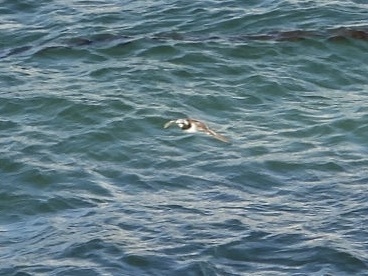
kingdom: Animalia
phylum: Chordata
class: Aves
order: Charadriiformes
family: Scolopacidae
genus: Arenaria
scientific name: Arenaria interpres
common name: Ruddy turnstone
